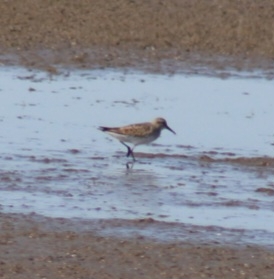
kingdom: Animalia
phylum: Chordata
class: Aves
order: Charadriiformes
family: Scolopacidae
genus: Calidris
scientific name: Calidris fuscicollis
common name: White-rumped sandpiper
